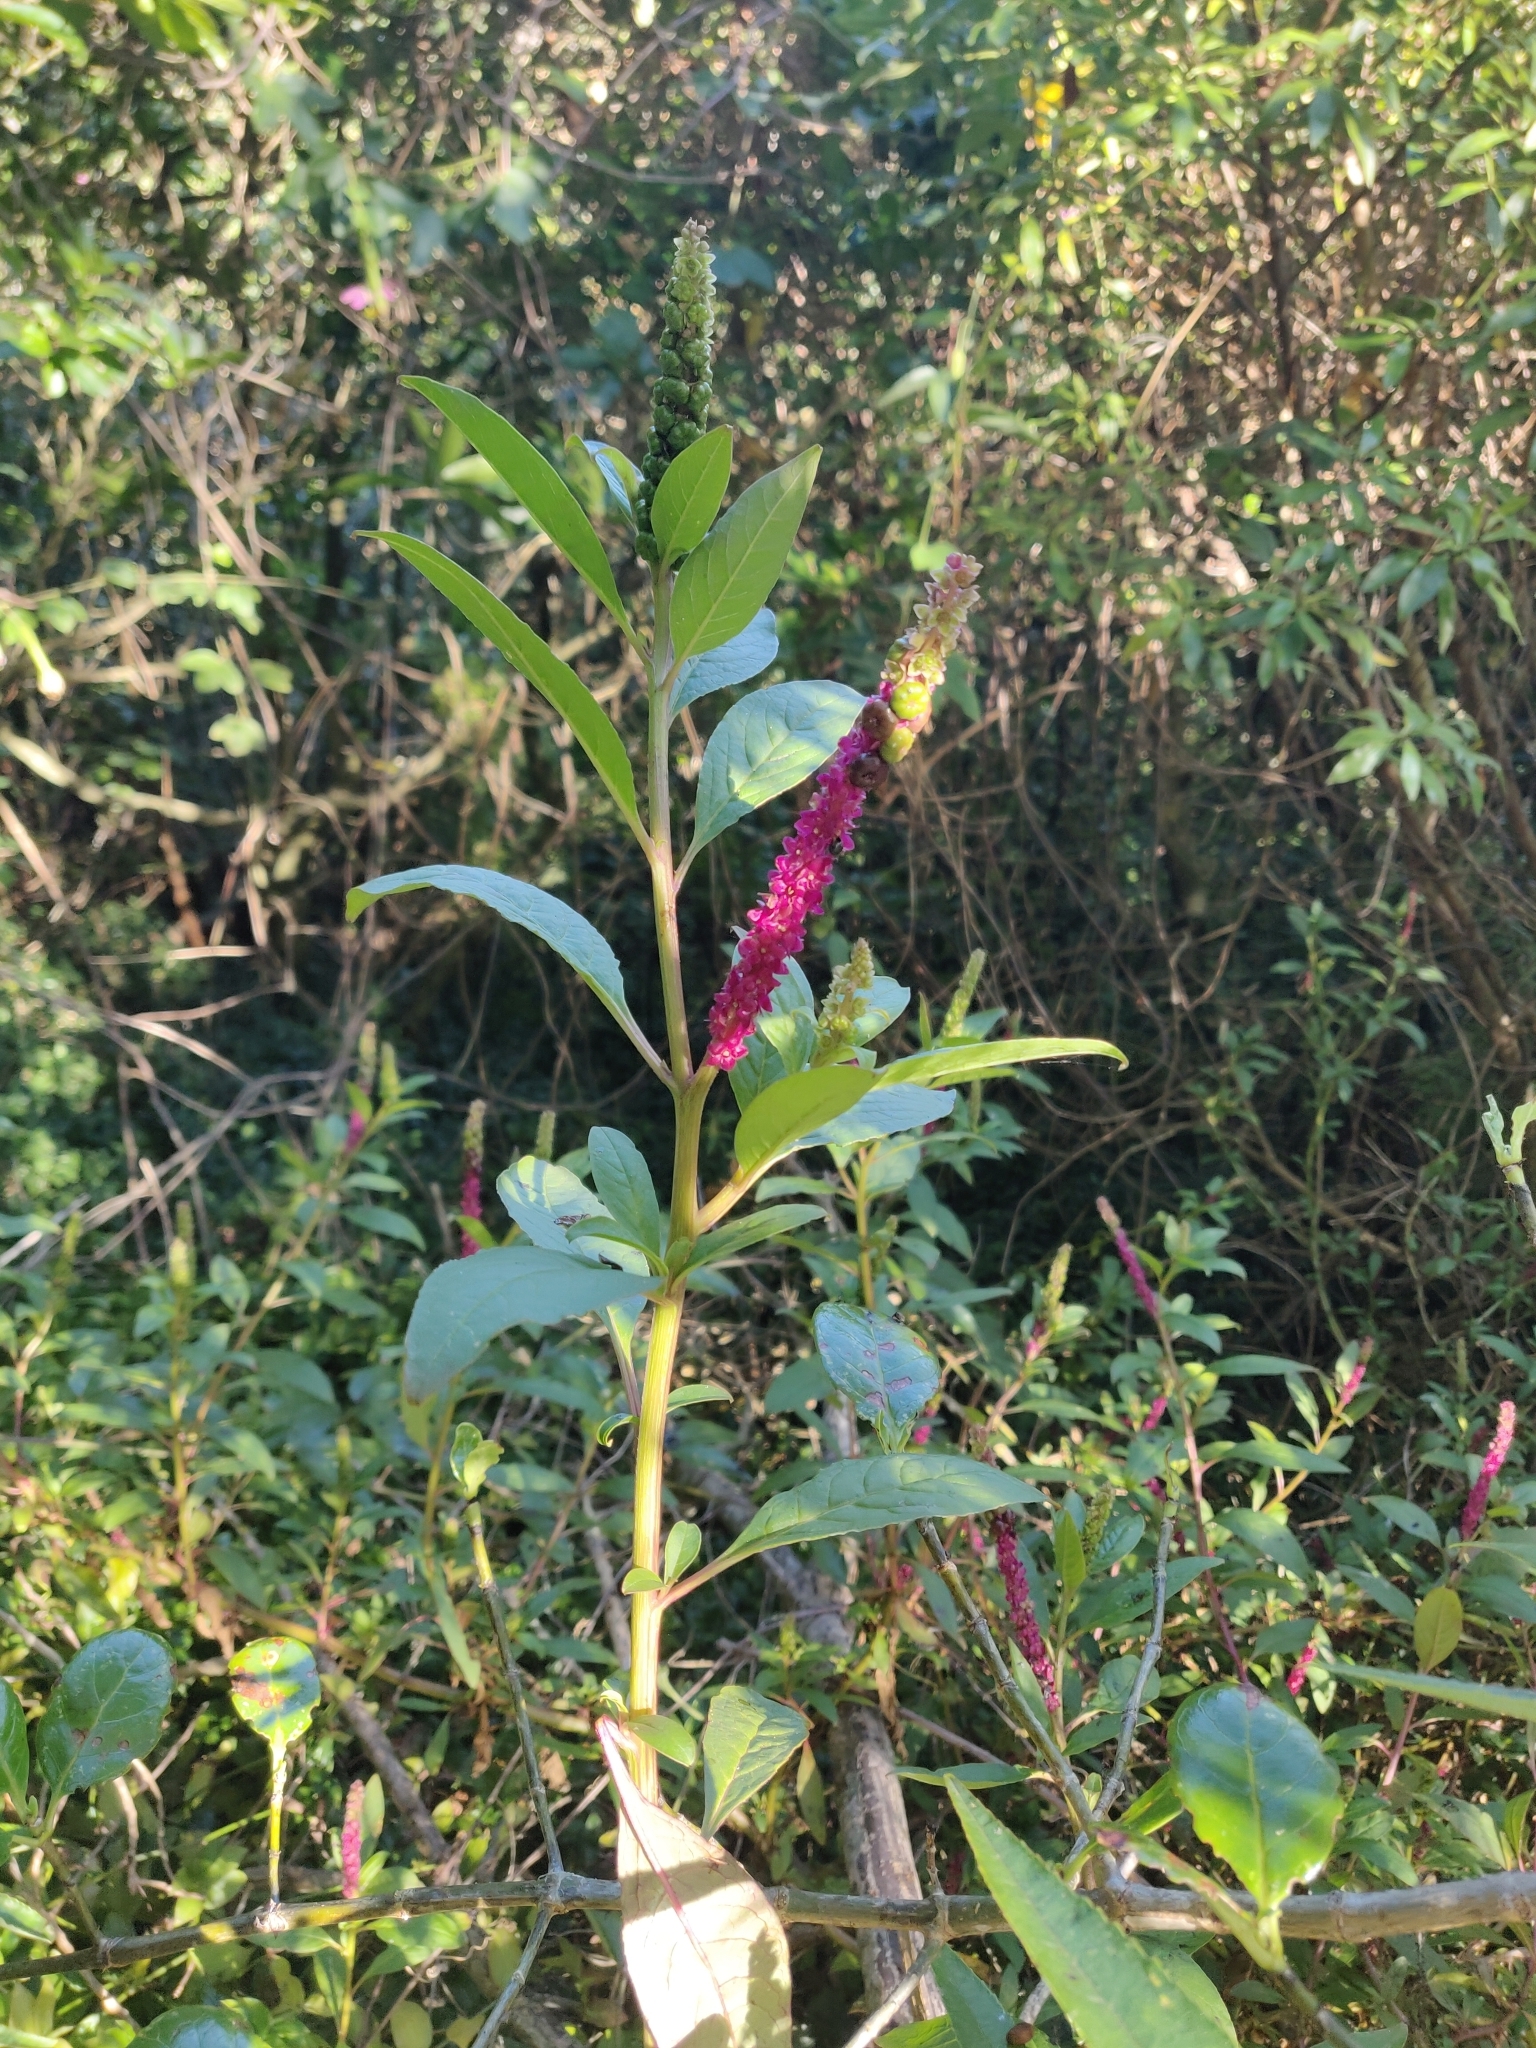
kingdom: Plantae
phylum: Tracheophyta
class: Magnoliopsida
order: Caryophyllales
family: Phytolaccaceae
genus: Phytolacca
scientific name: Phytolacca icosandra
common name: Button pokeweed
